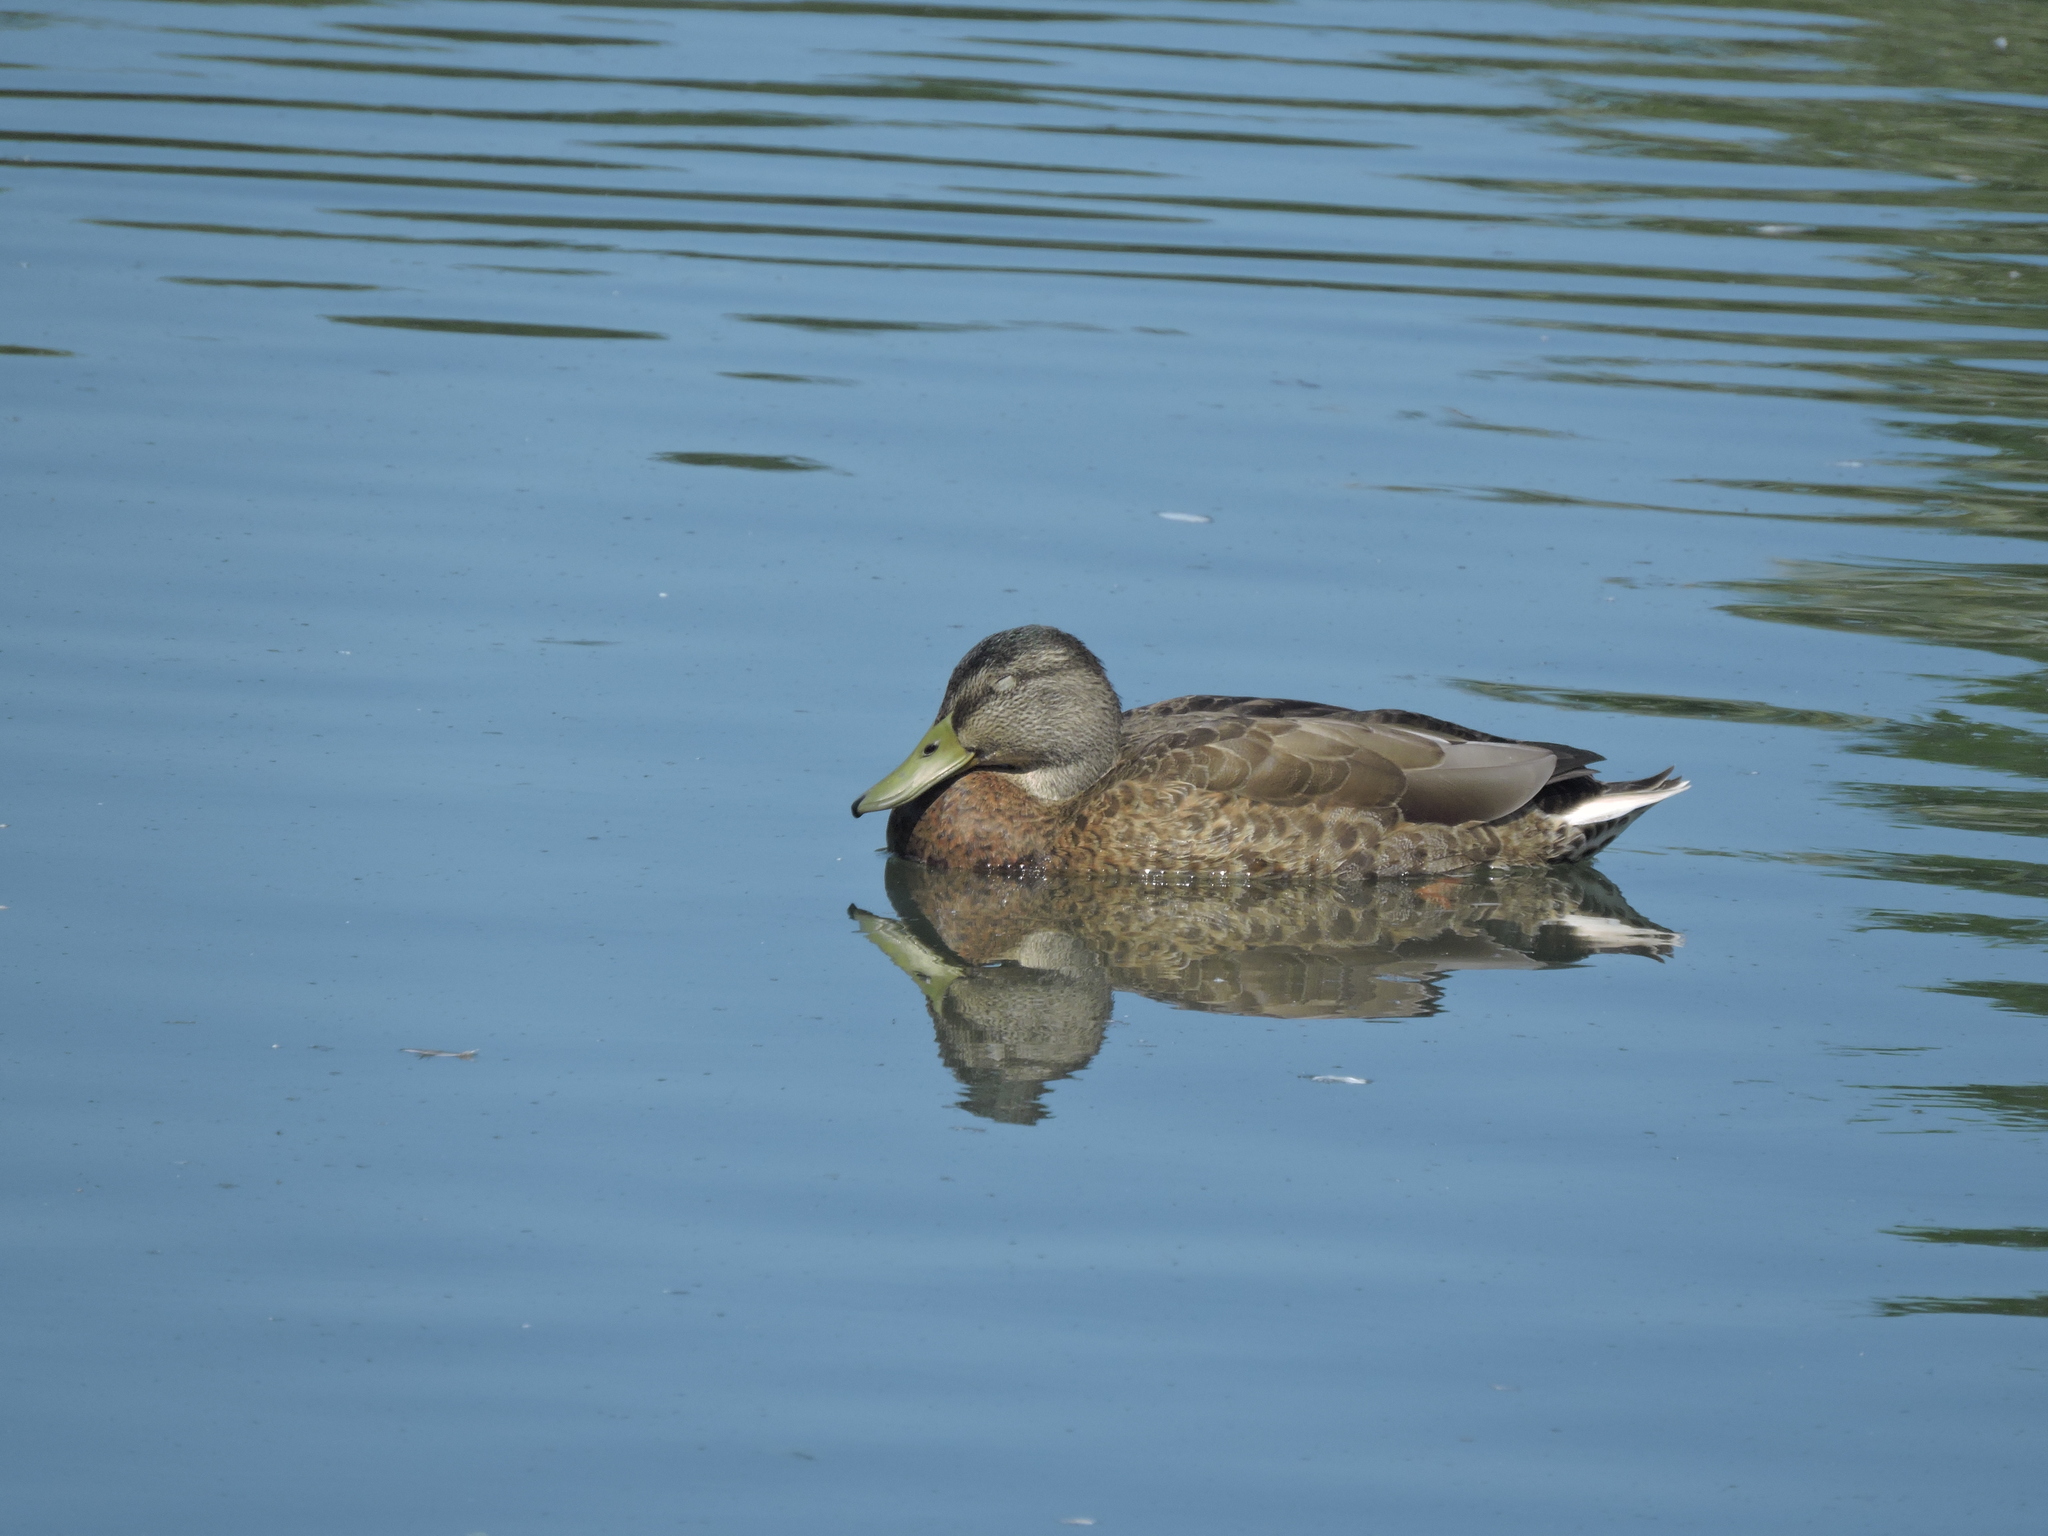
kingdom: Animalia
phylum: Chordata
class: Aves
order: Anseriformes
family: Anatidae
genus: Anas
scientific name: Anas platyrhynchos
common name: Mallard
